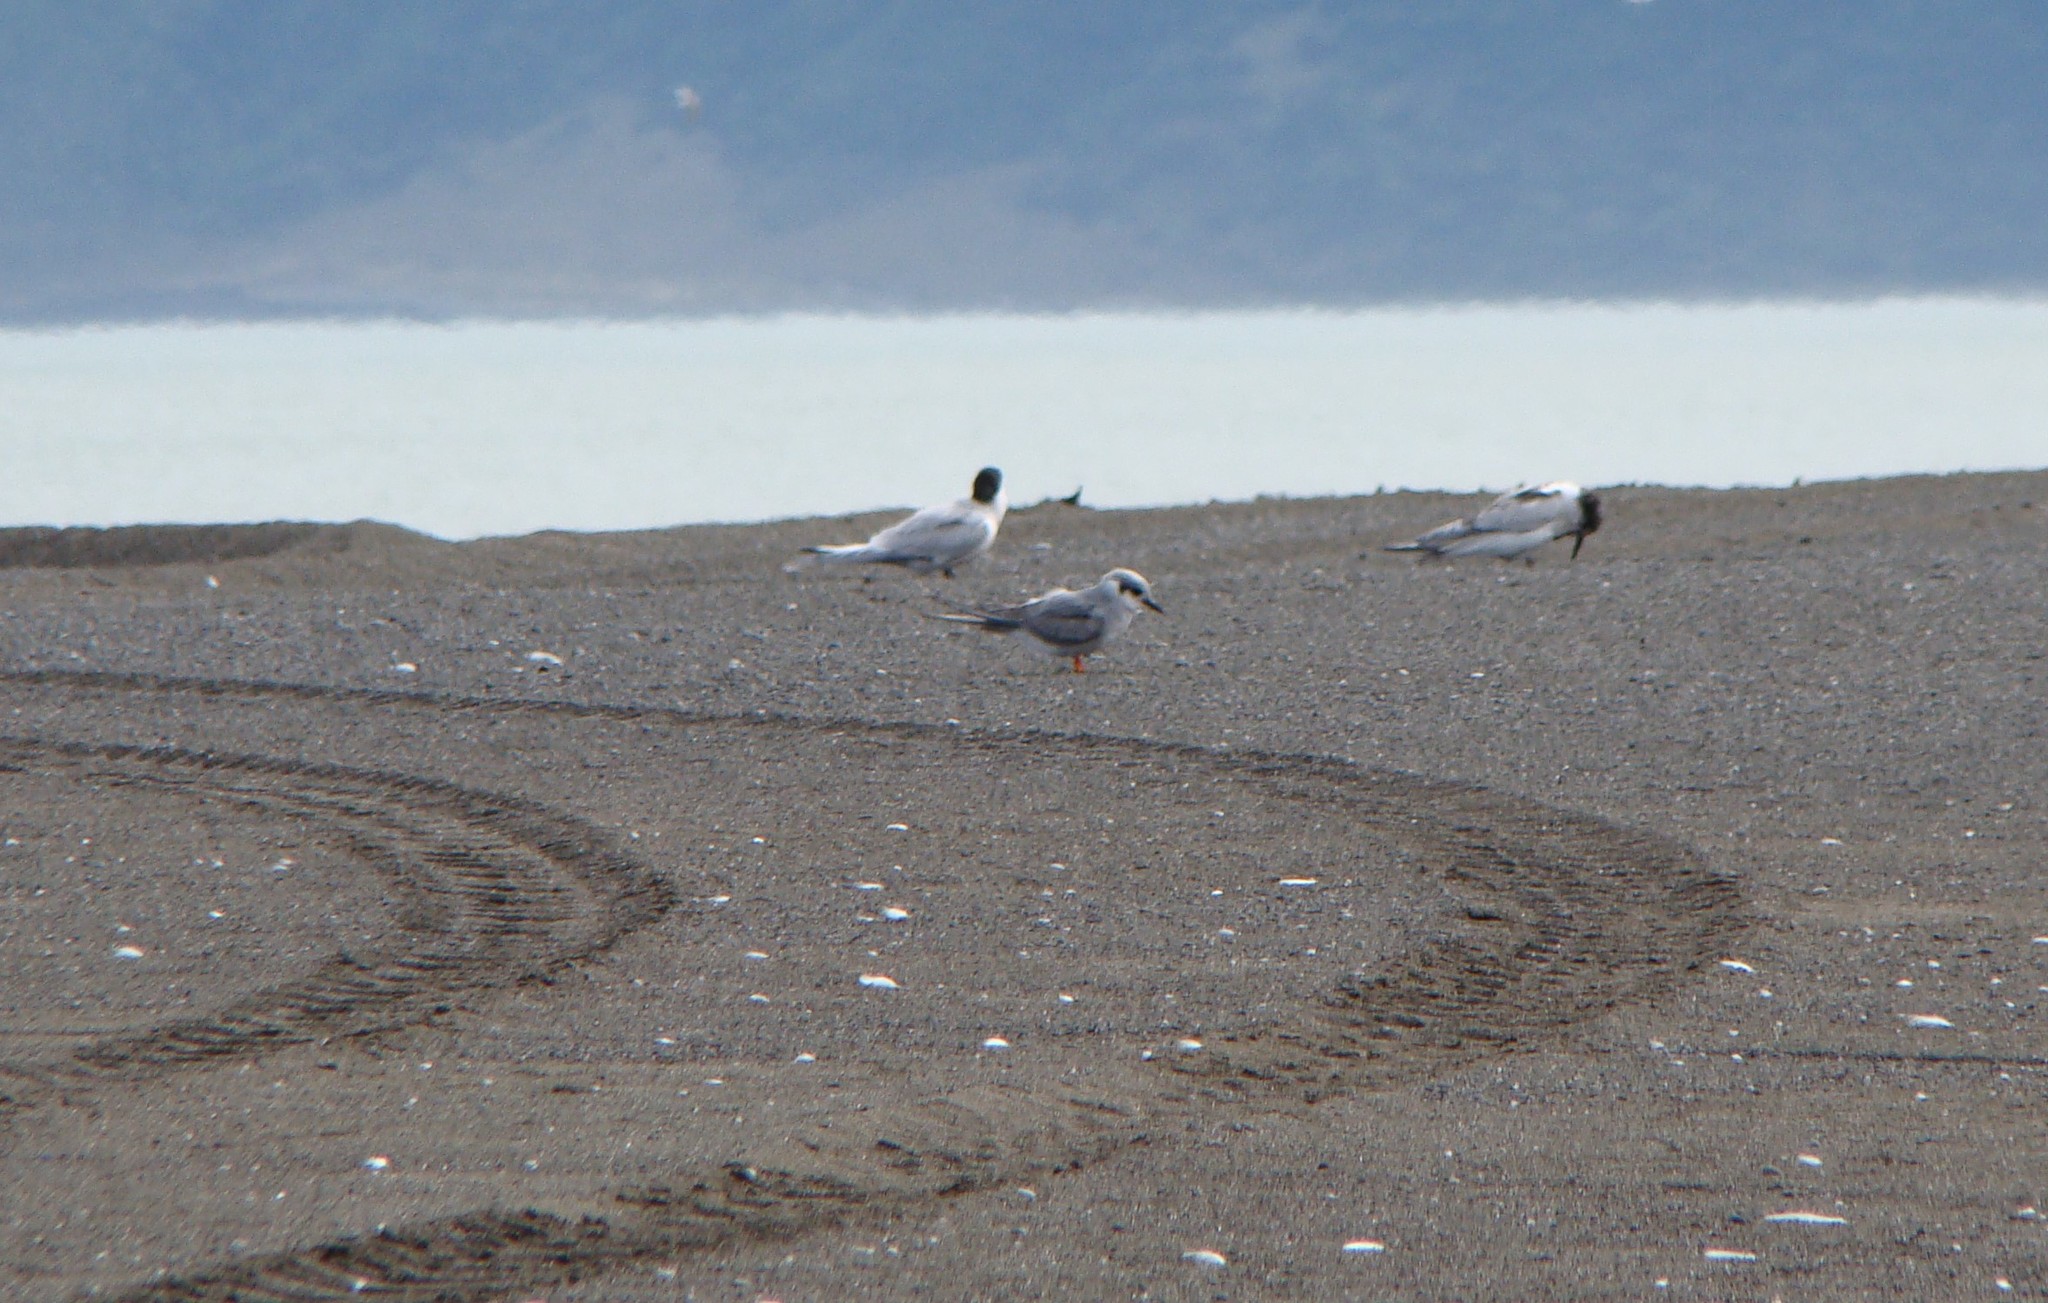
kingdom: Animalia
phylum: Chordata
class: Aves
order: Charadriiformes
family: Laridae
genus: Chlidonias
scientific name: Chlidonias albostriatus
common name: Black-fronted tern
